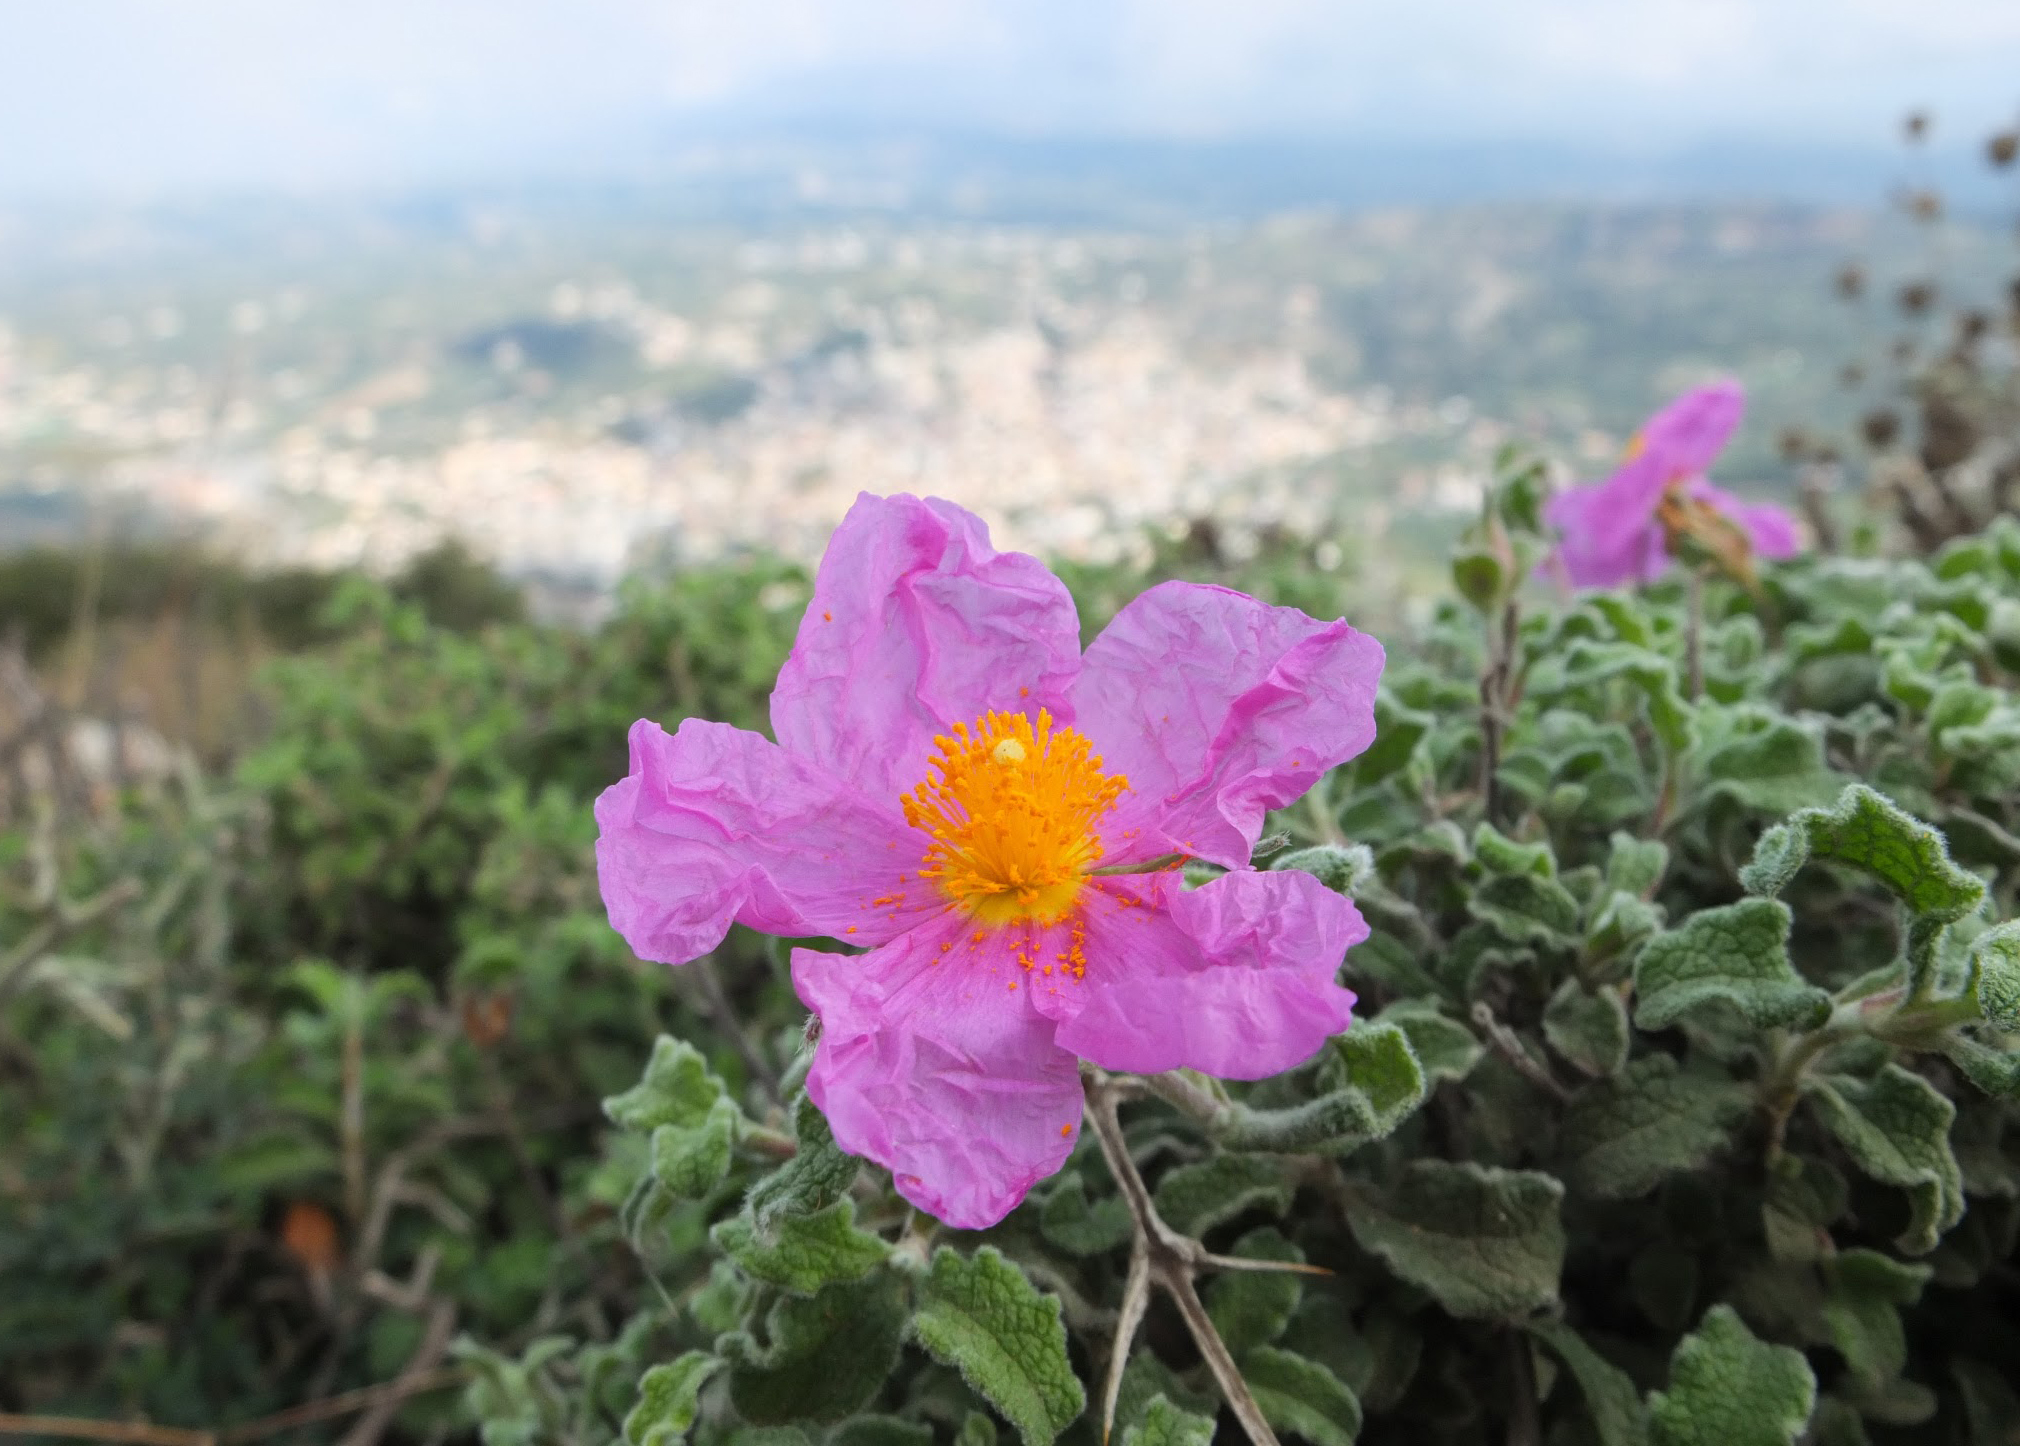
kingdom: Plantae
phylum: Tracheophyta
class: Magnoliopsida
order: Malvales
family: Cistaceae
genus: Cistus
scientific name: Cistus creticus
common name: Cretan rockrose
